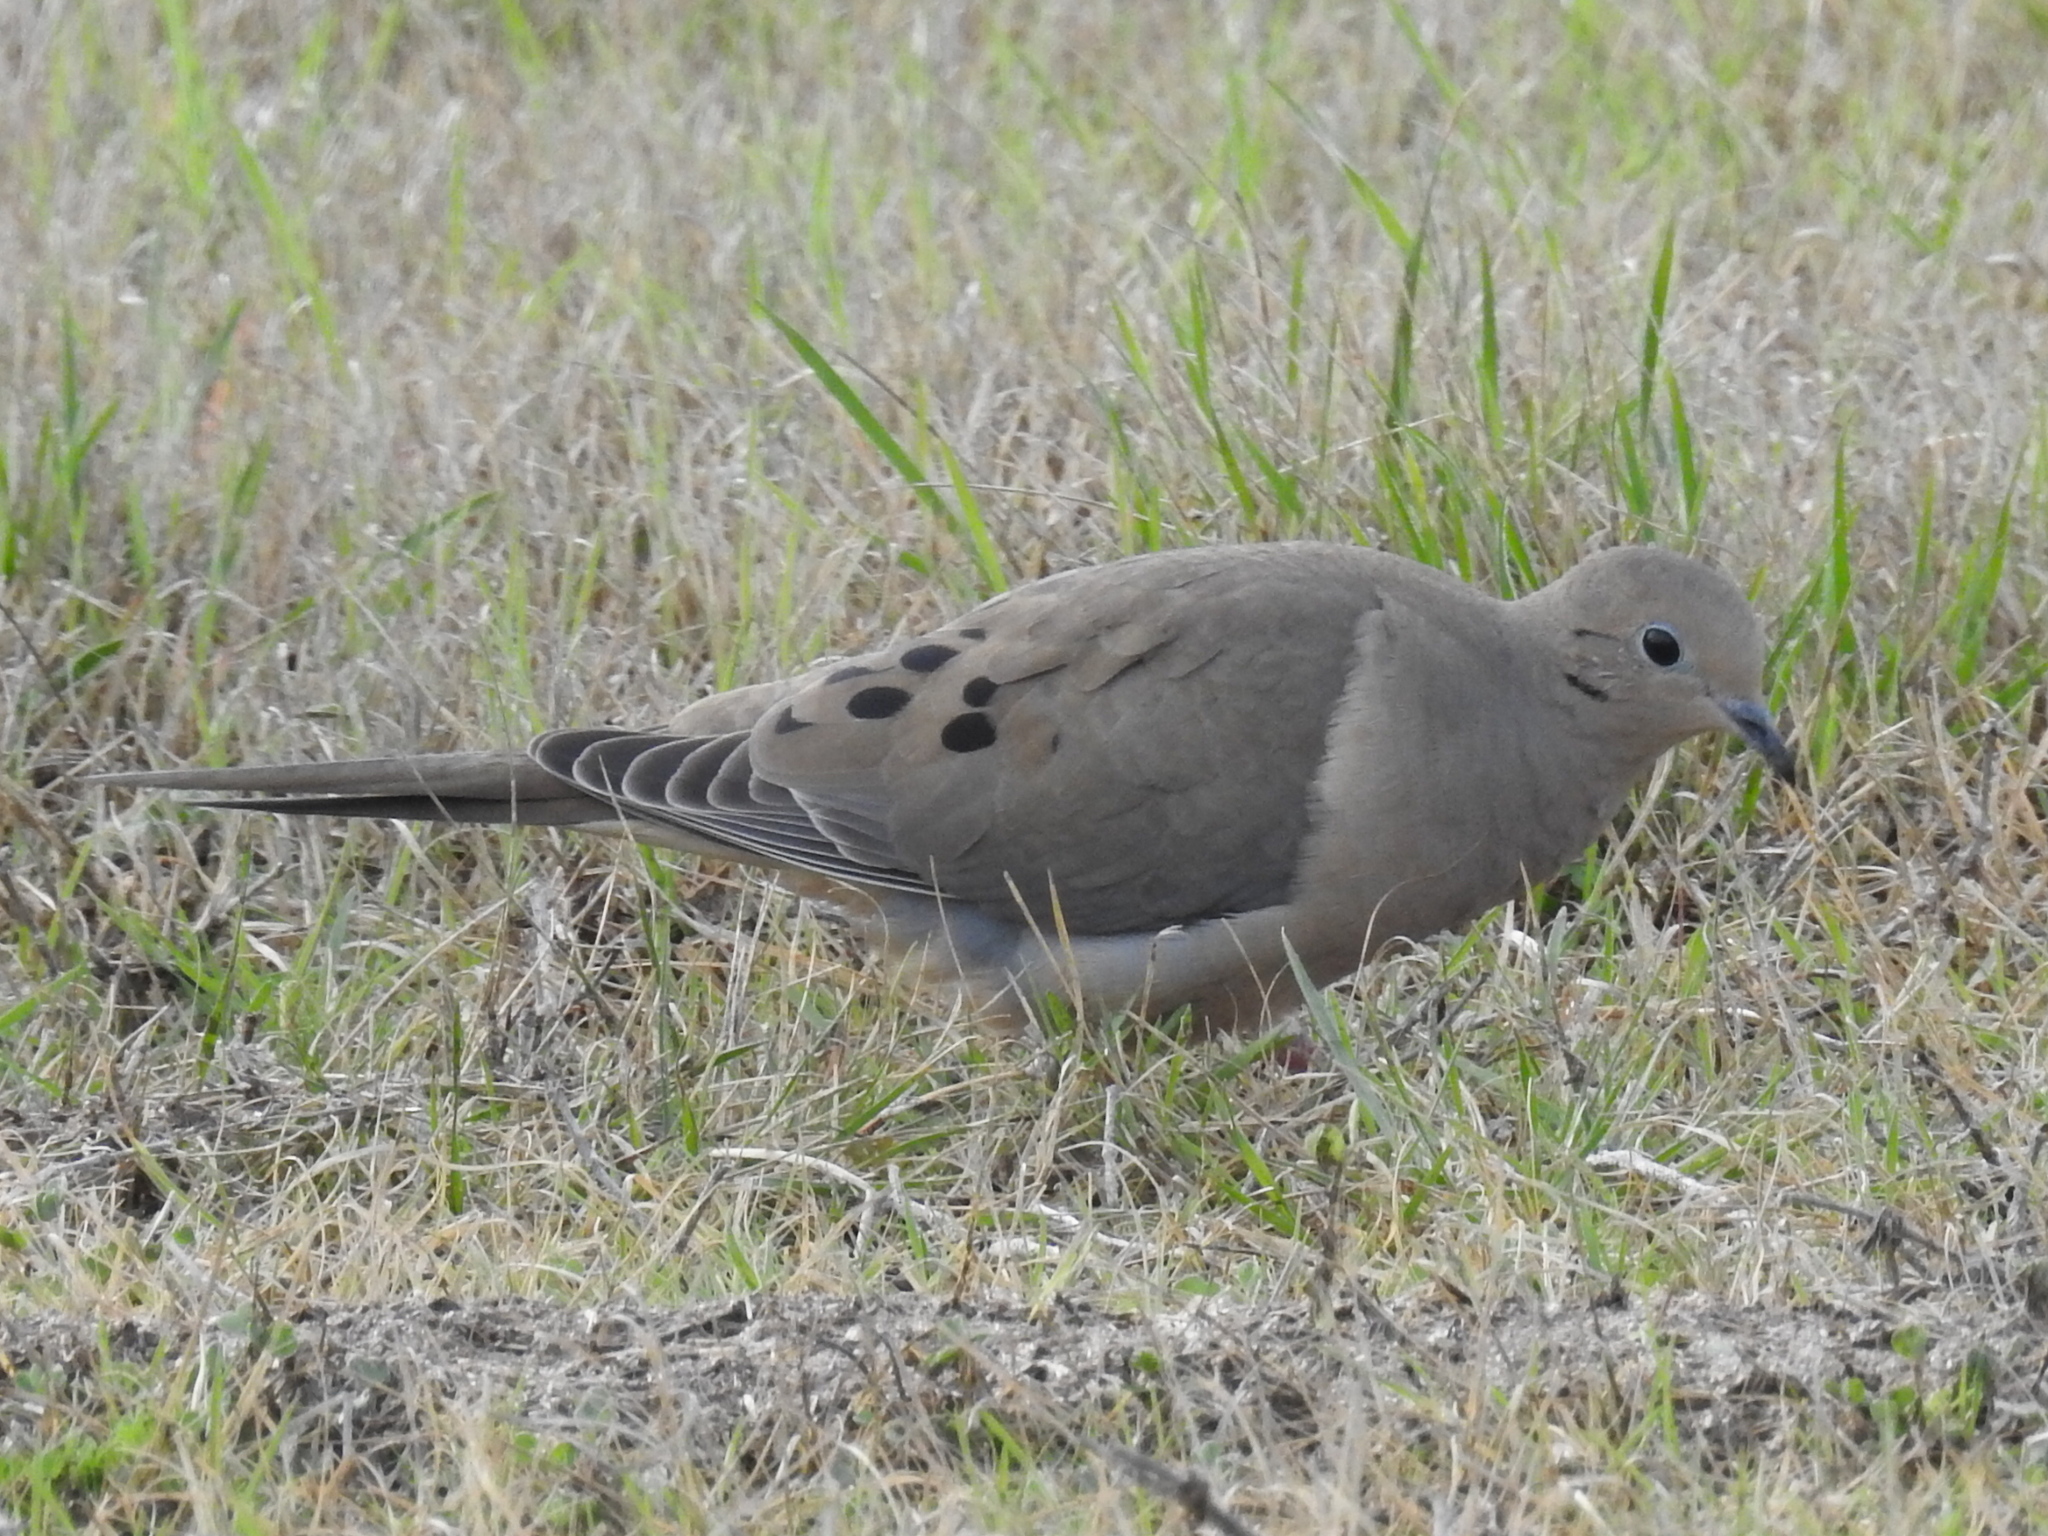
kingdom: Animalia
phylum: Chordata
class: Aves
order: Columbiformes
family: Columbidae
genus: Zenaida
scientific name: Zenaida macroura
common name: Mourning dove
